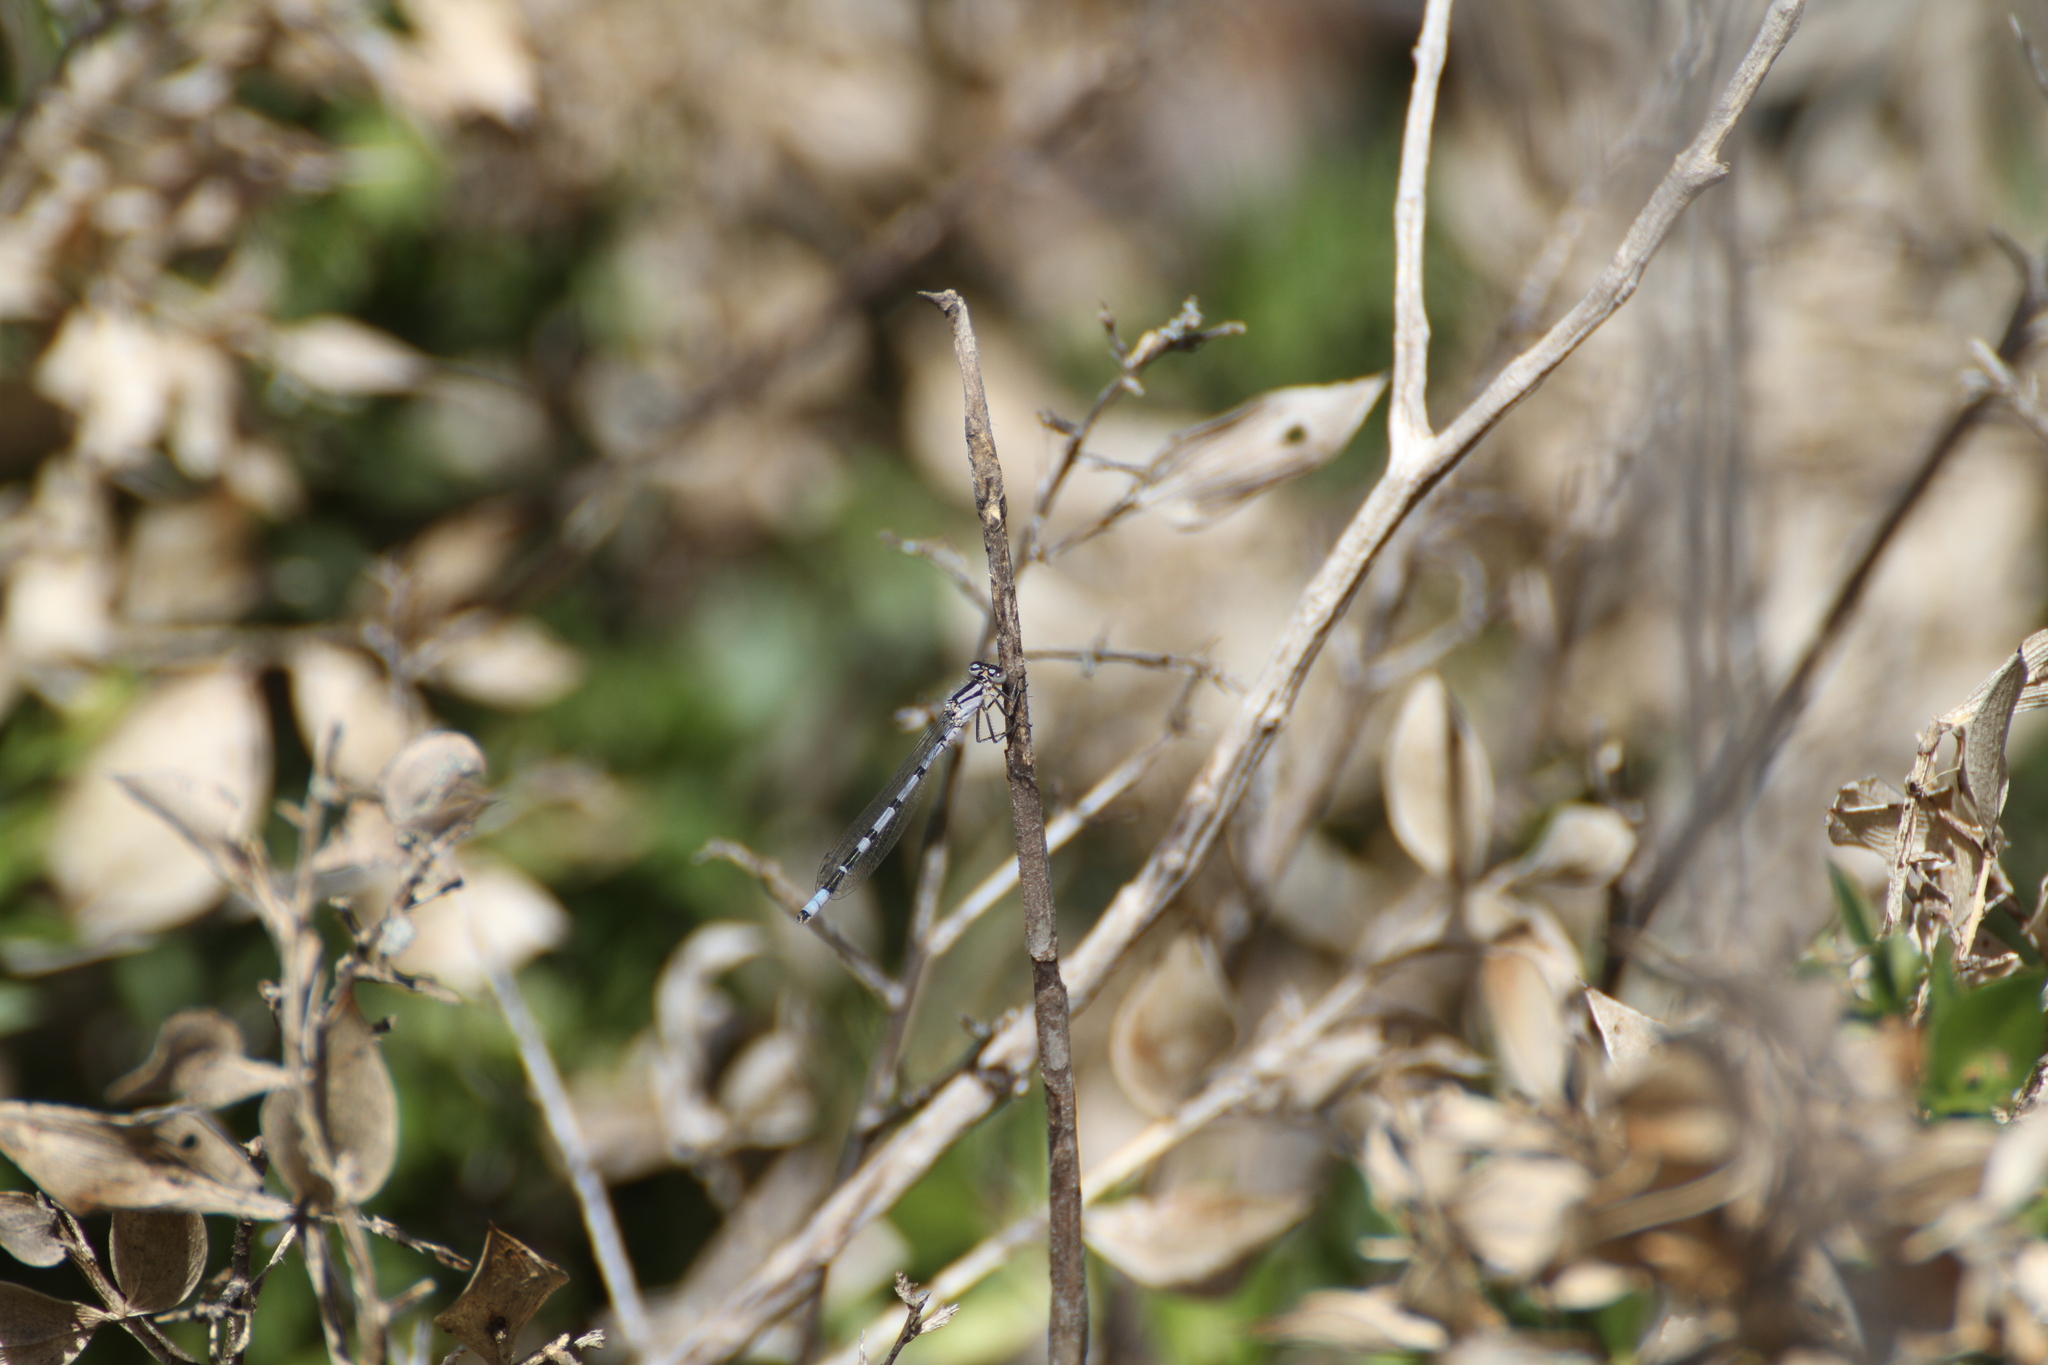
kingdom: Animalia
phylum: Arthropoda
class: Insecta
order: Odonata
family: Coenagrionidae
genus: Enallagma
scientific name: Enallagma cyathigerum
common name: Common blue damselfly
